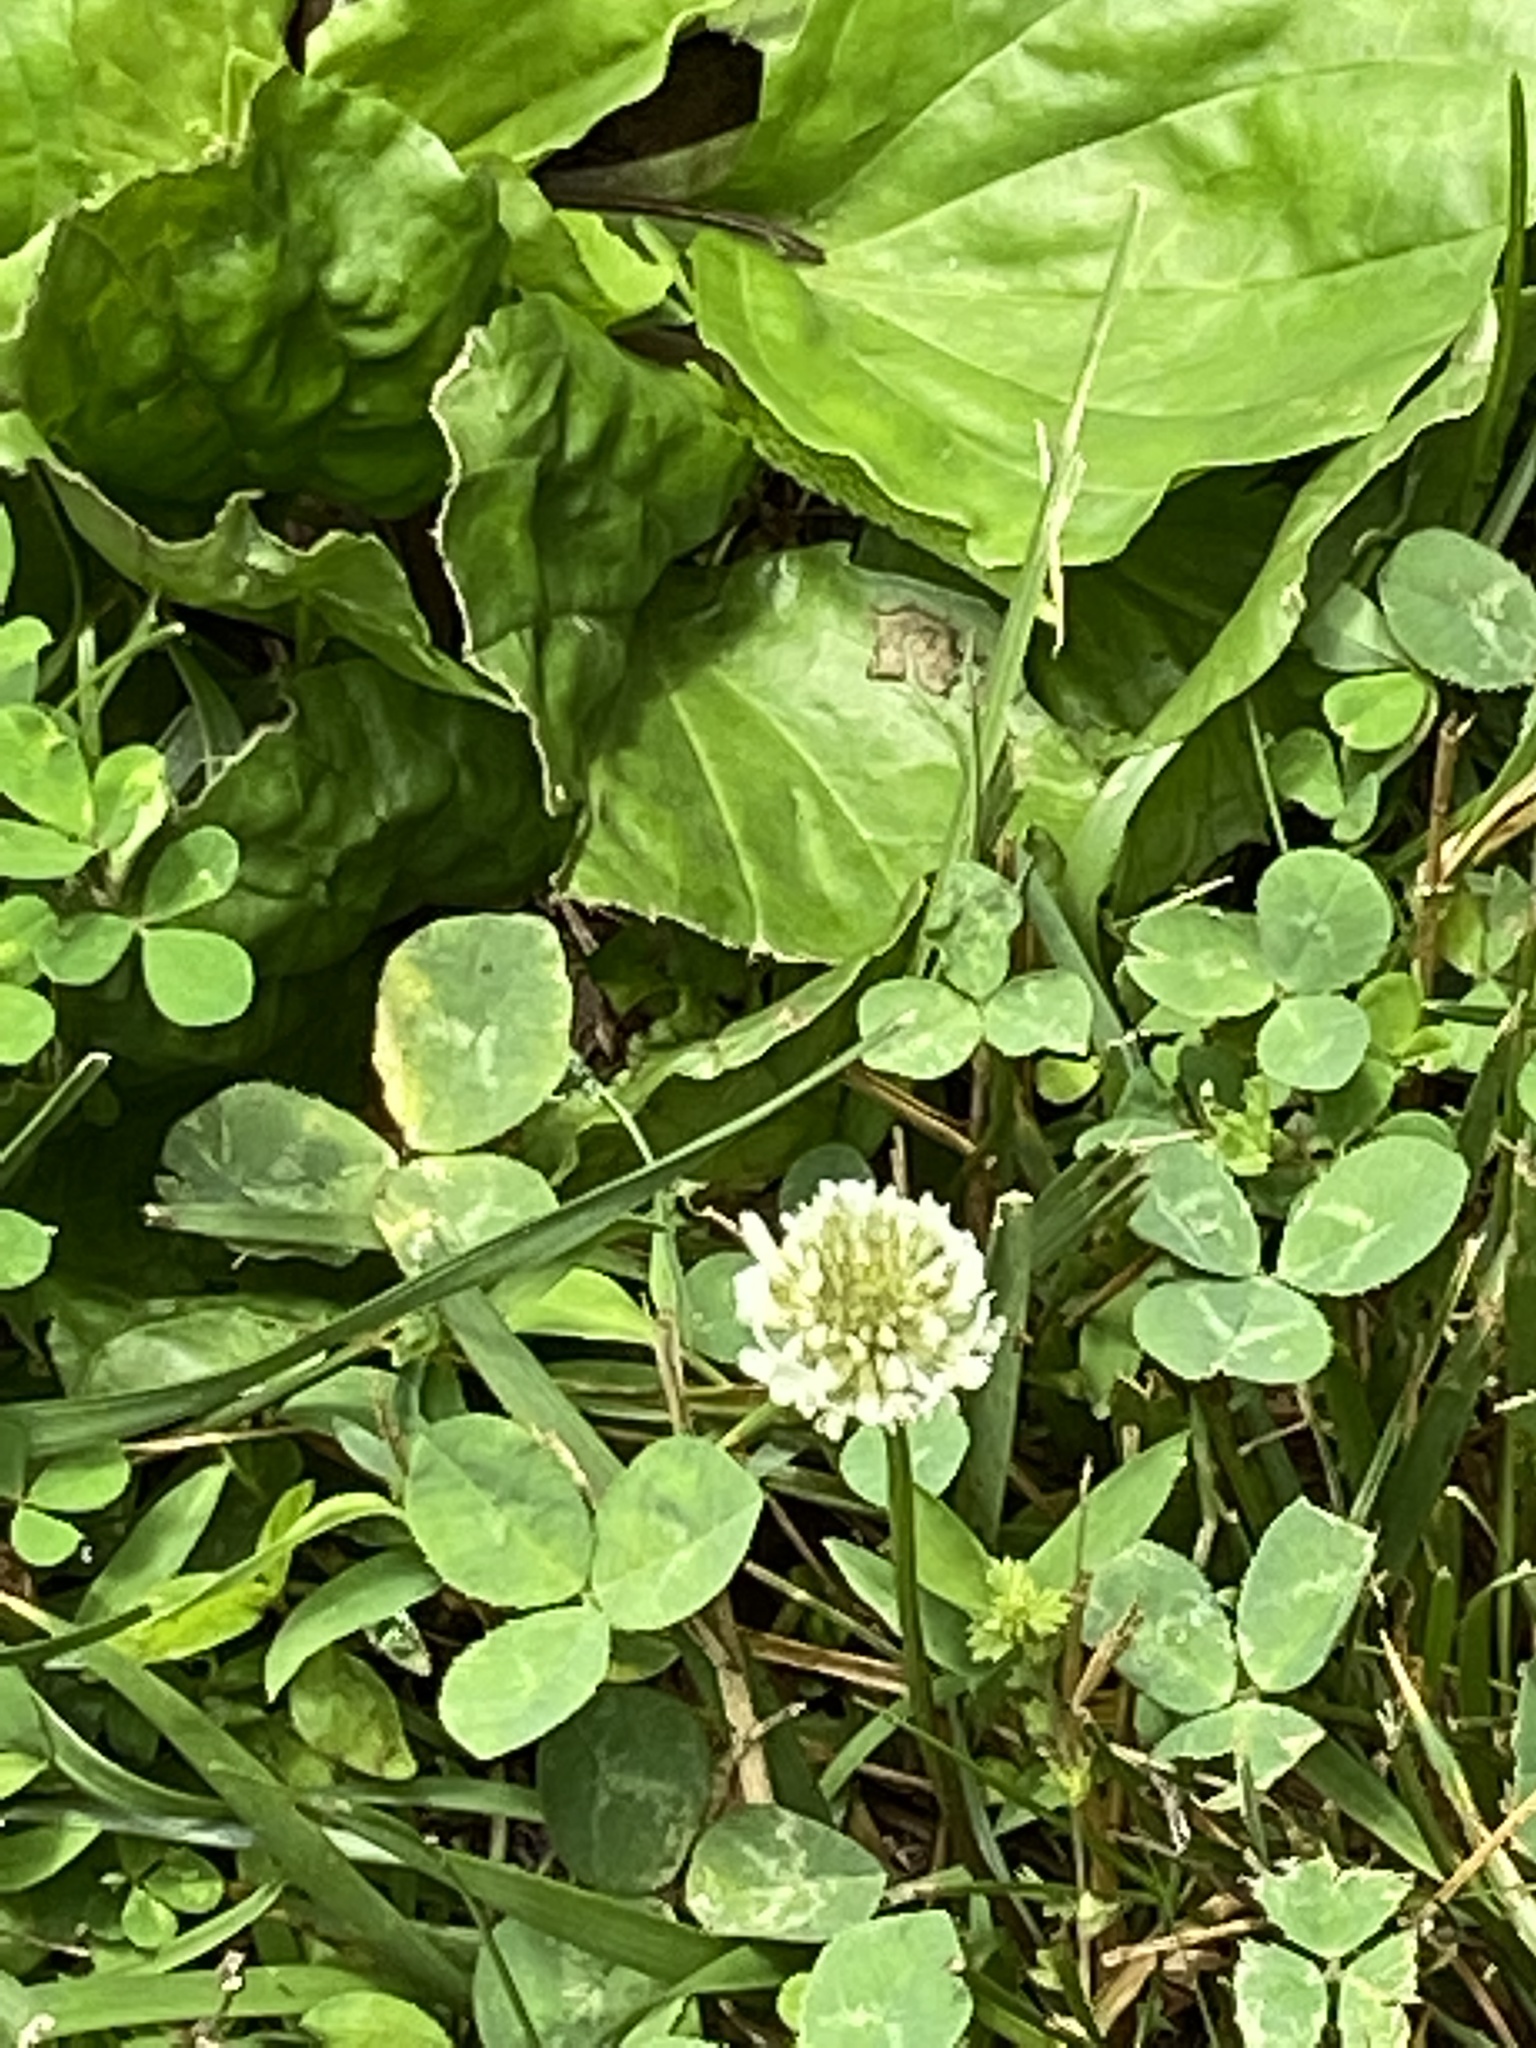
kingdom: Plantae
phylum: Tracheophyta
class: Magnoliopsida
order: Fabales
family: Fabaceae
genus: Trifolium
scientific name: Trifolium repens
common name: White clover
